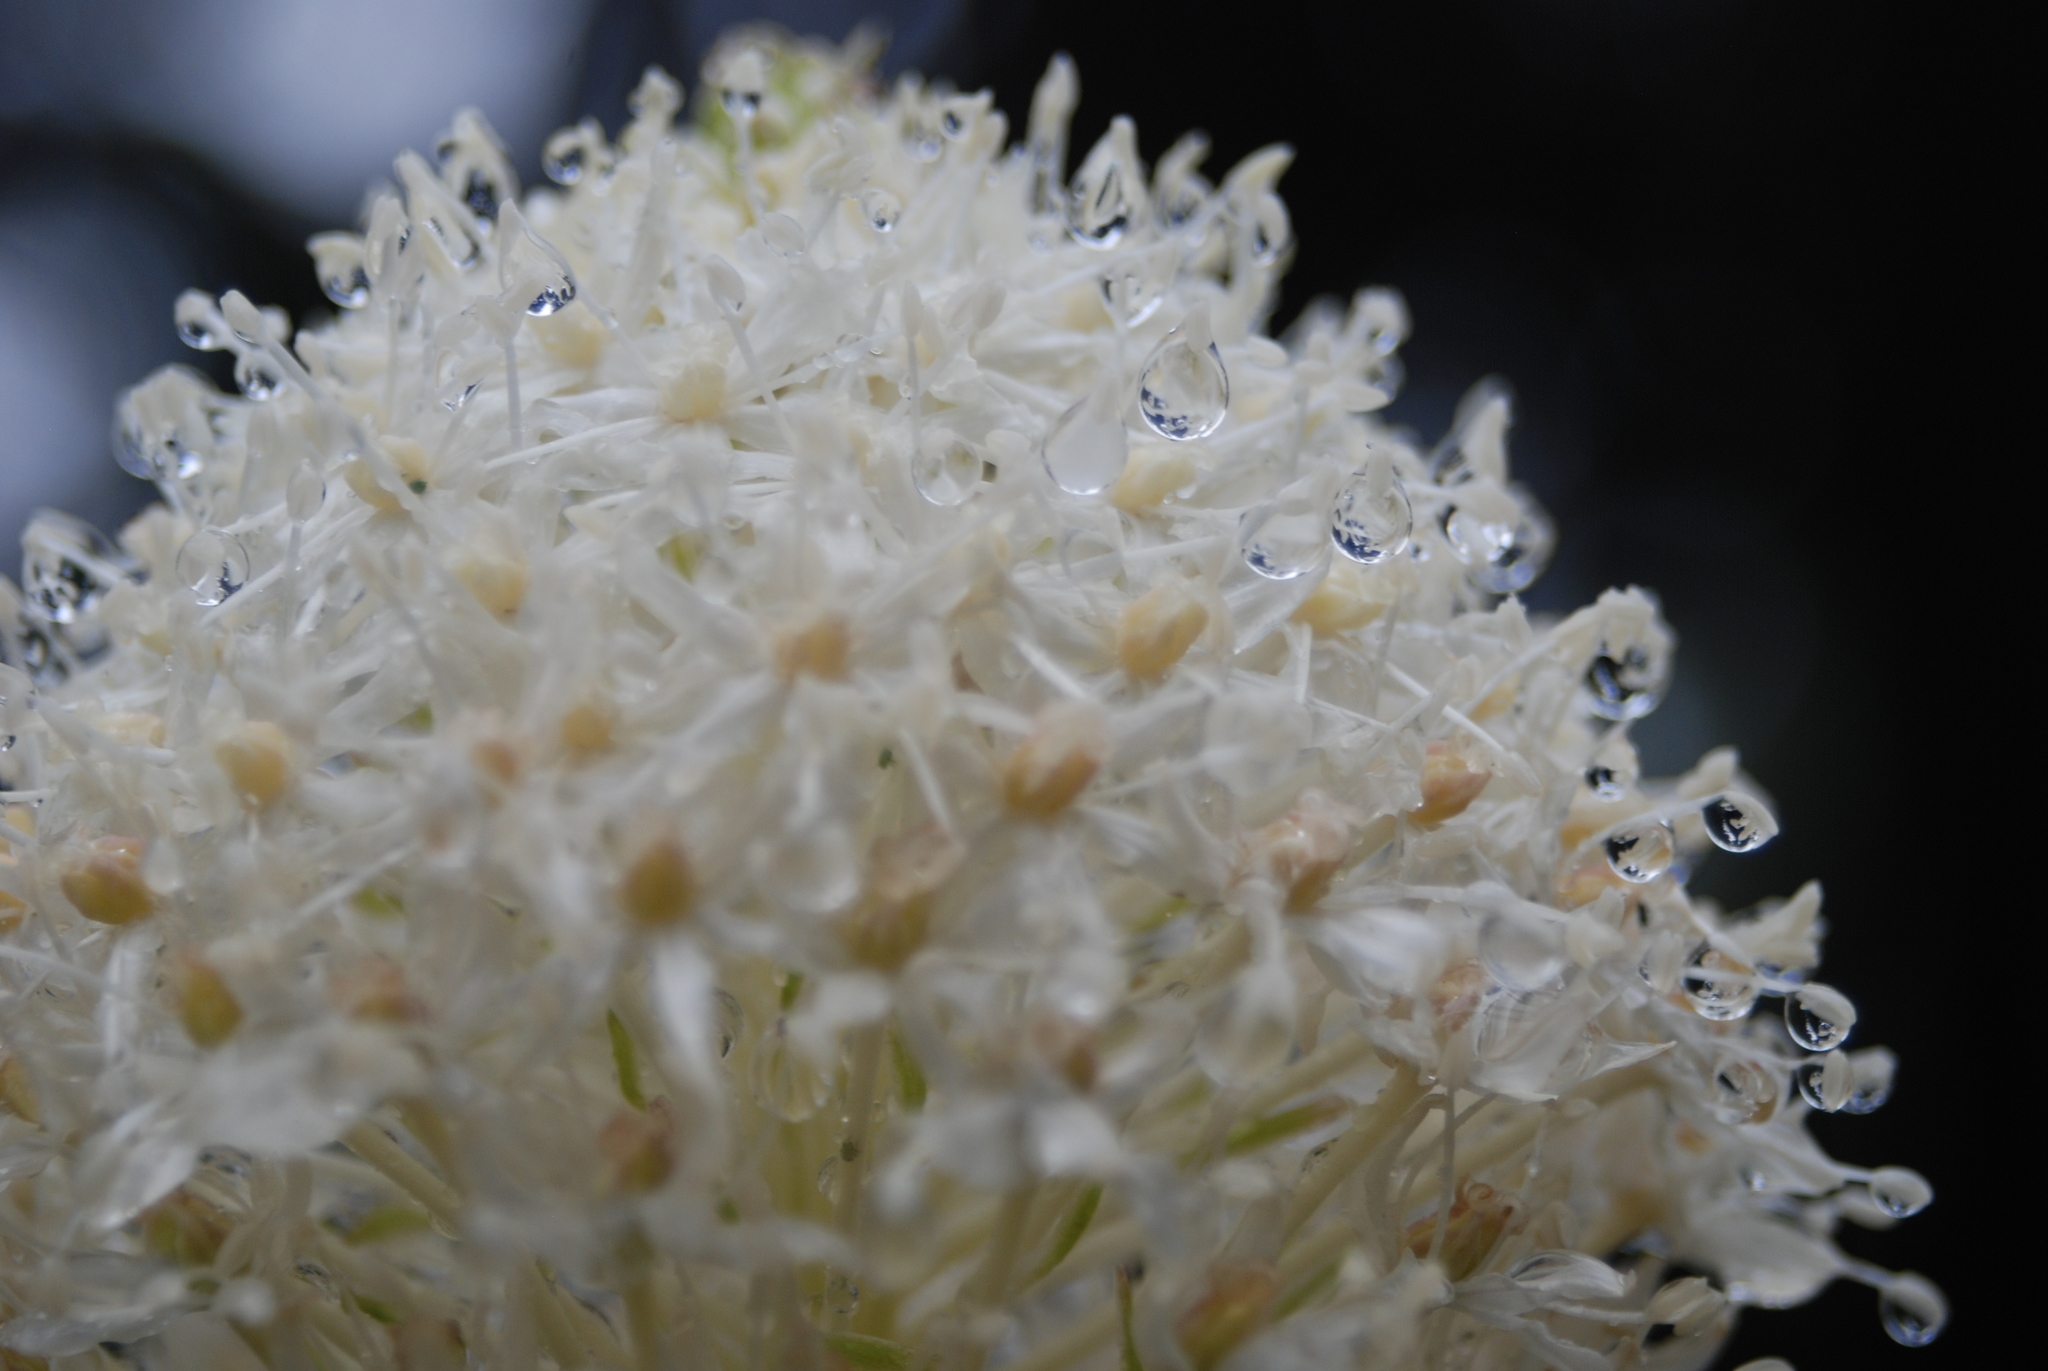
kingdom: Plantae
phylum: Tracheophyta
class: Liliopsida
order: Liliales
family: Melanthiaceae
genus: Xerophyllum
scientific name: Xerophyllum tenax
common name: Bear-grass
